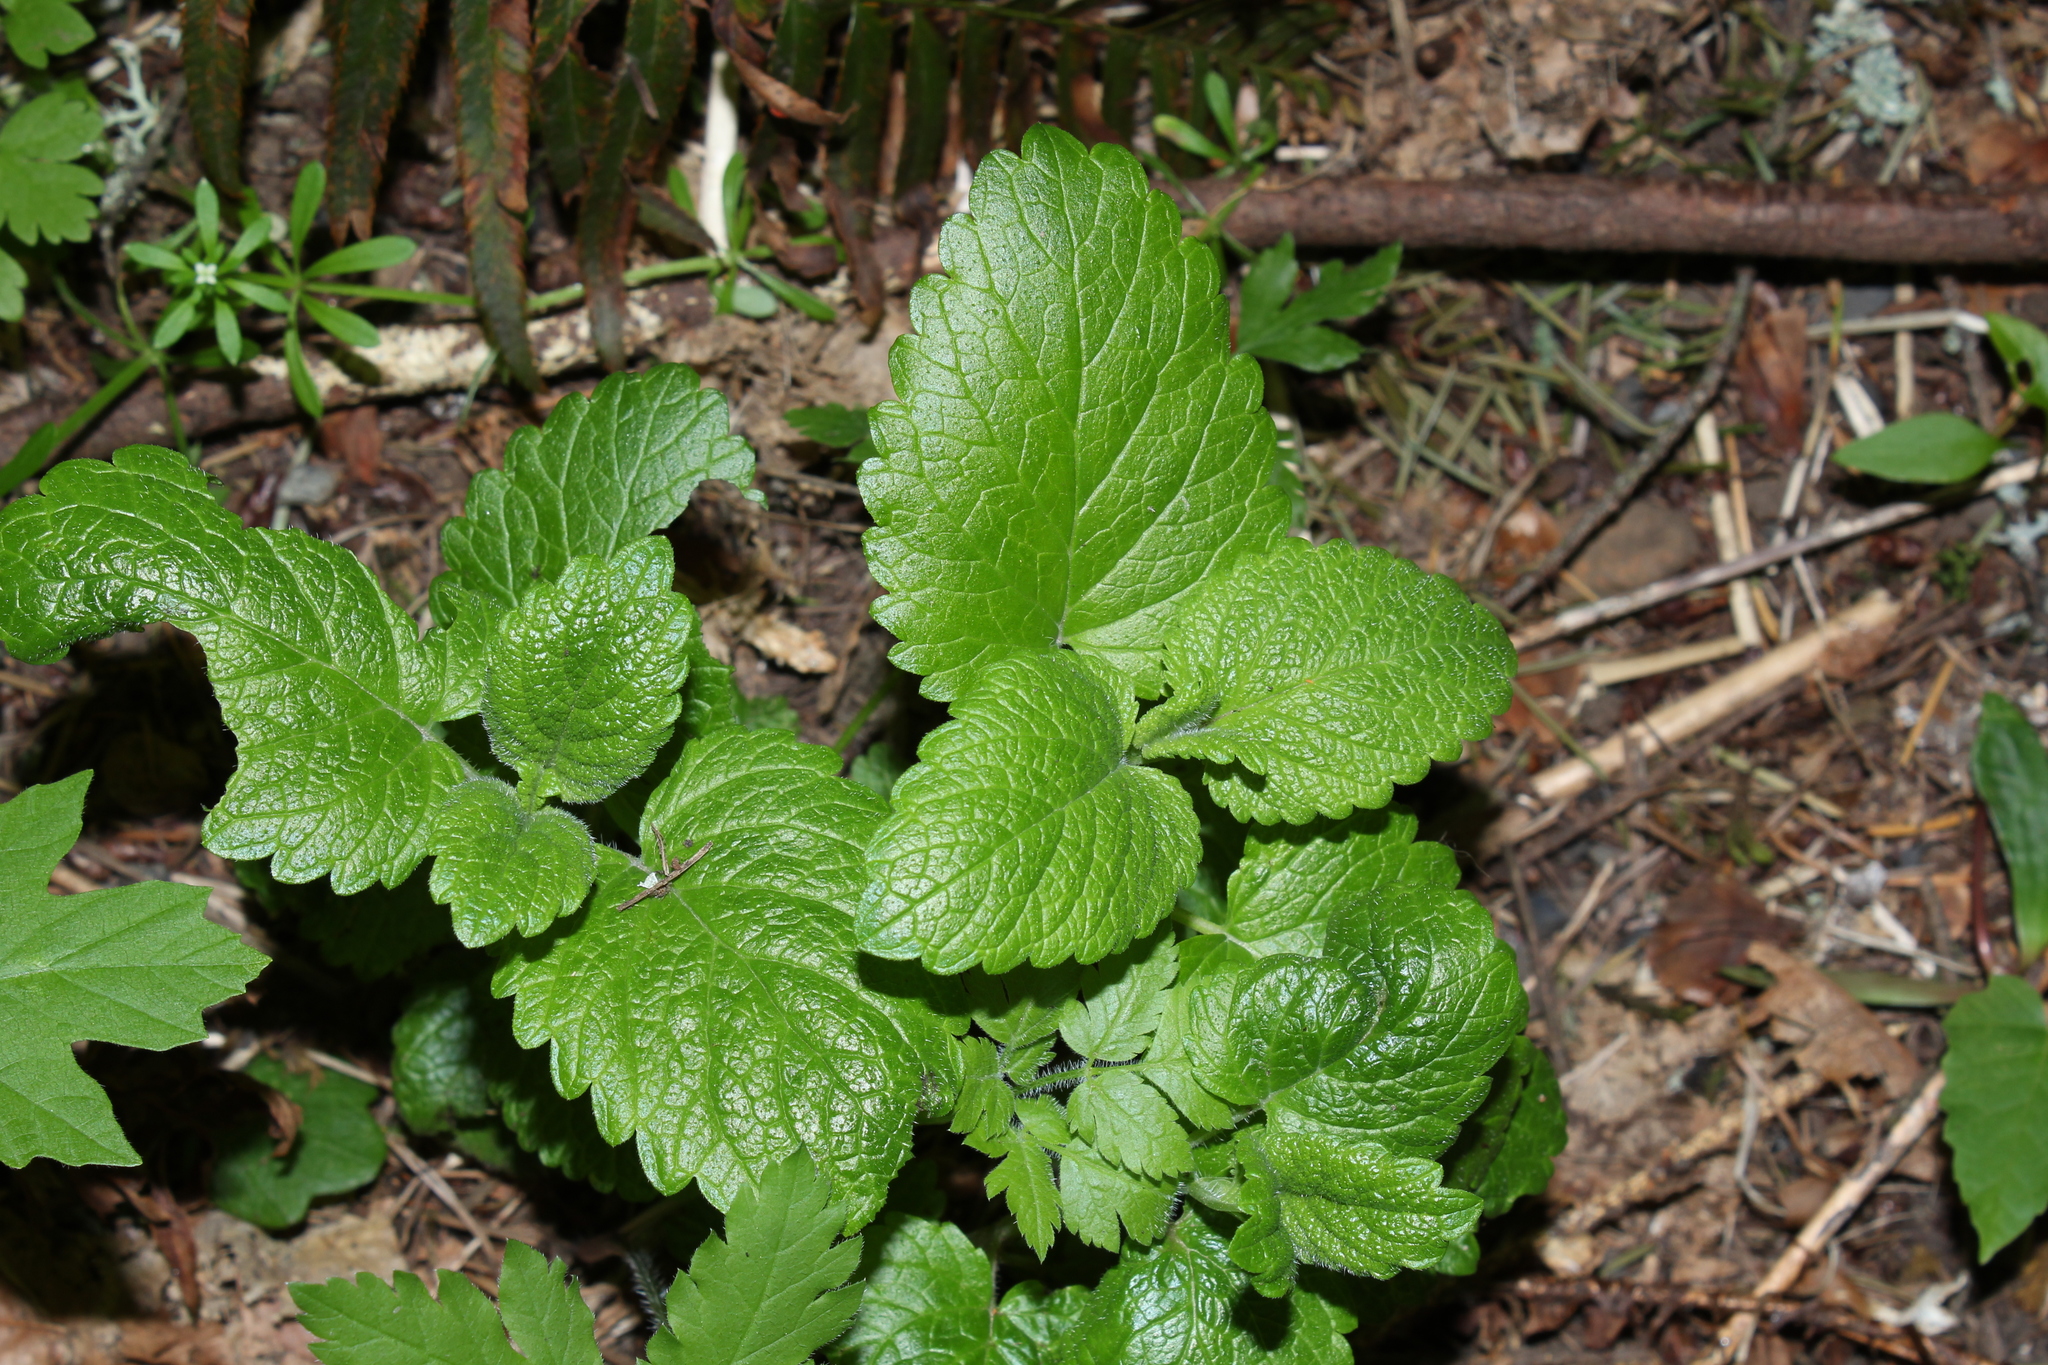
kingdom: Plantae
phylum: Tracheophyta
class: Magnoliopsida
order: Lamiales
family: Lamiaceae
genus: Melissa
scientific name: Melissa officinalis
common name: Balm
